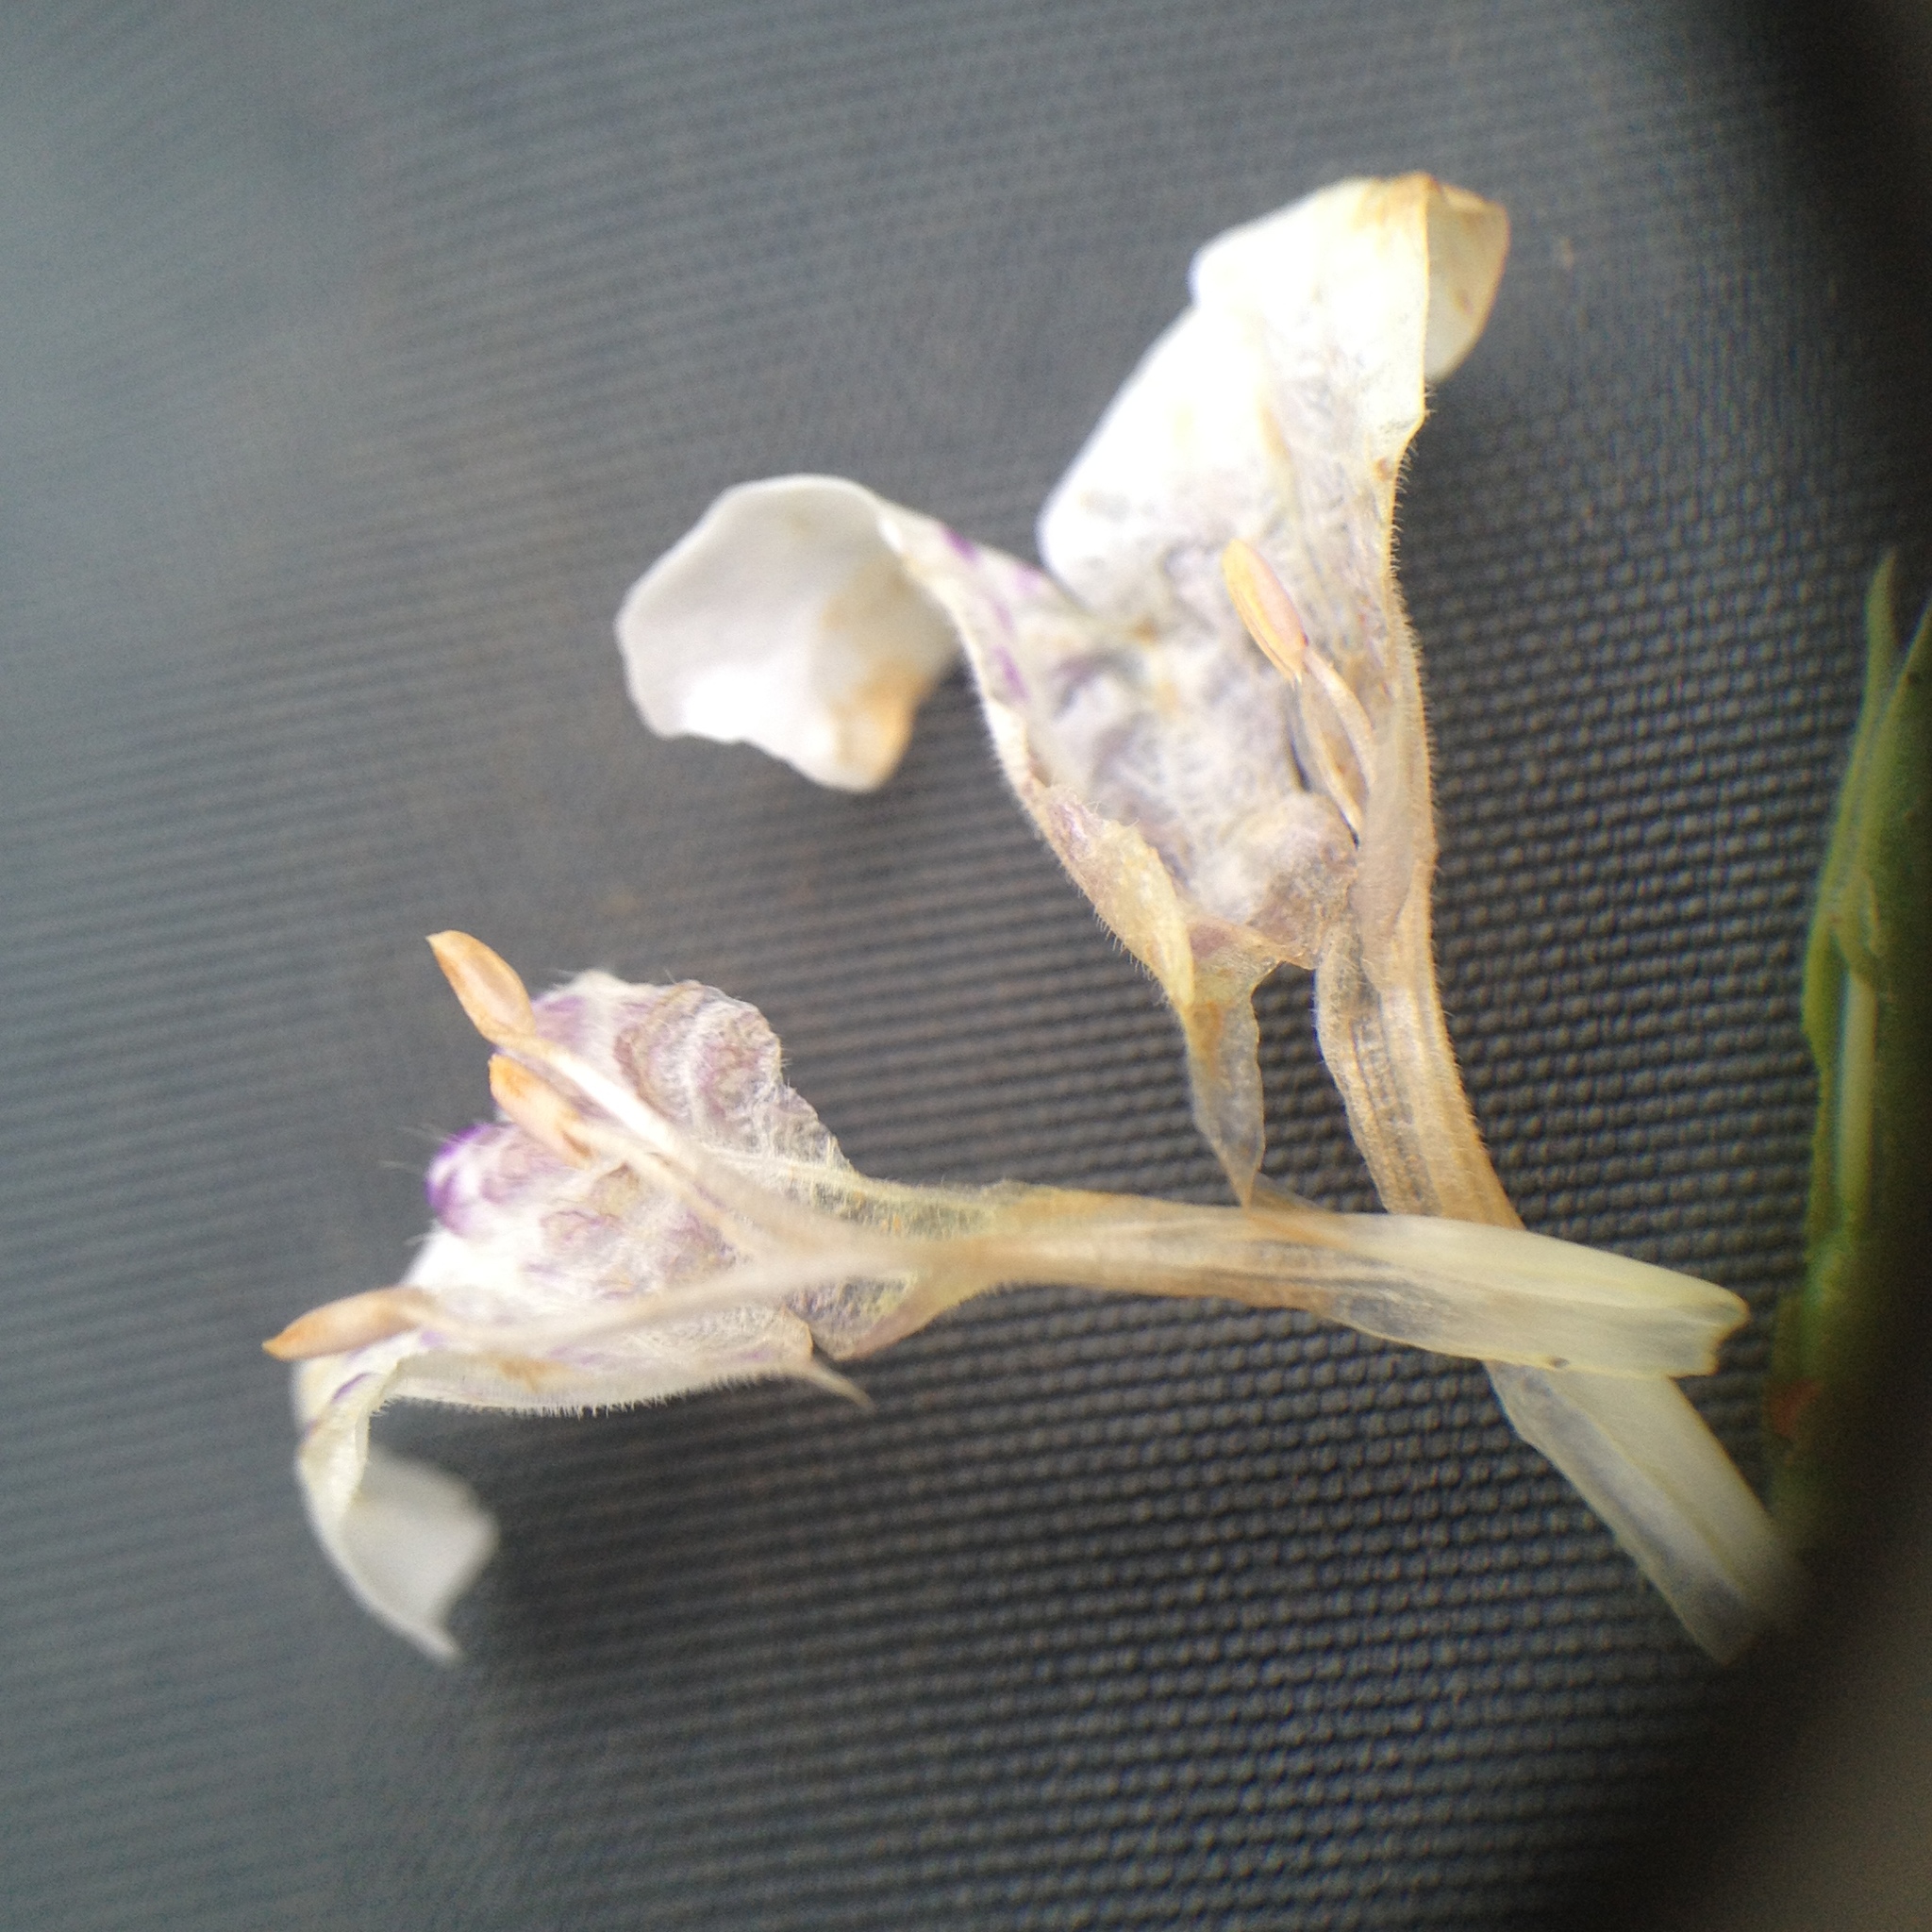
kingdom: Plantae
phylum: Tracheophyta
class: Magnoliopsida
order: Lamiales
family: Acanthaceae
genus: Dyschoriste
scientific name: Dyschoriste venturii
